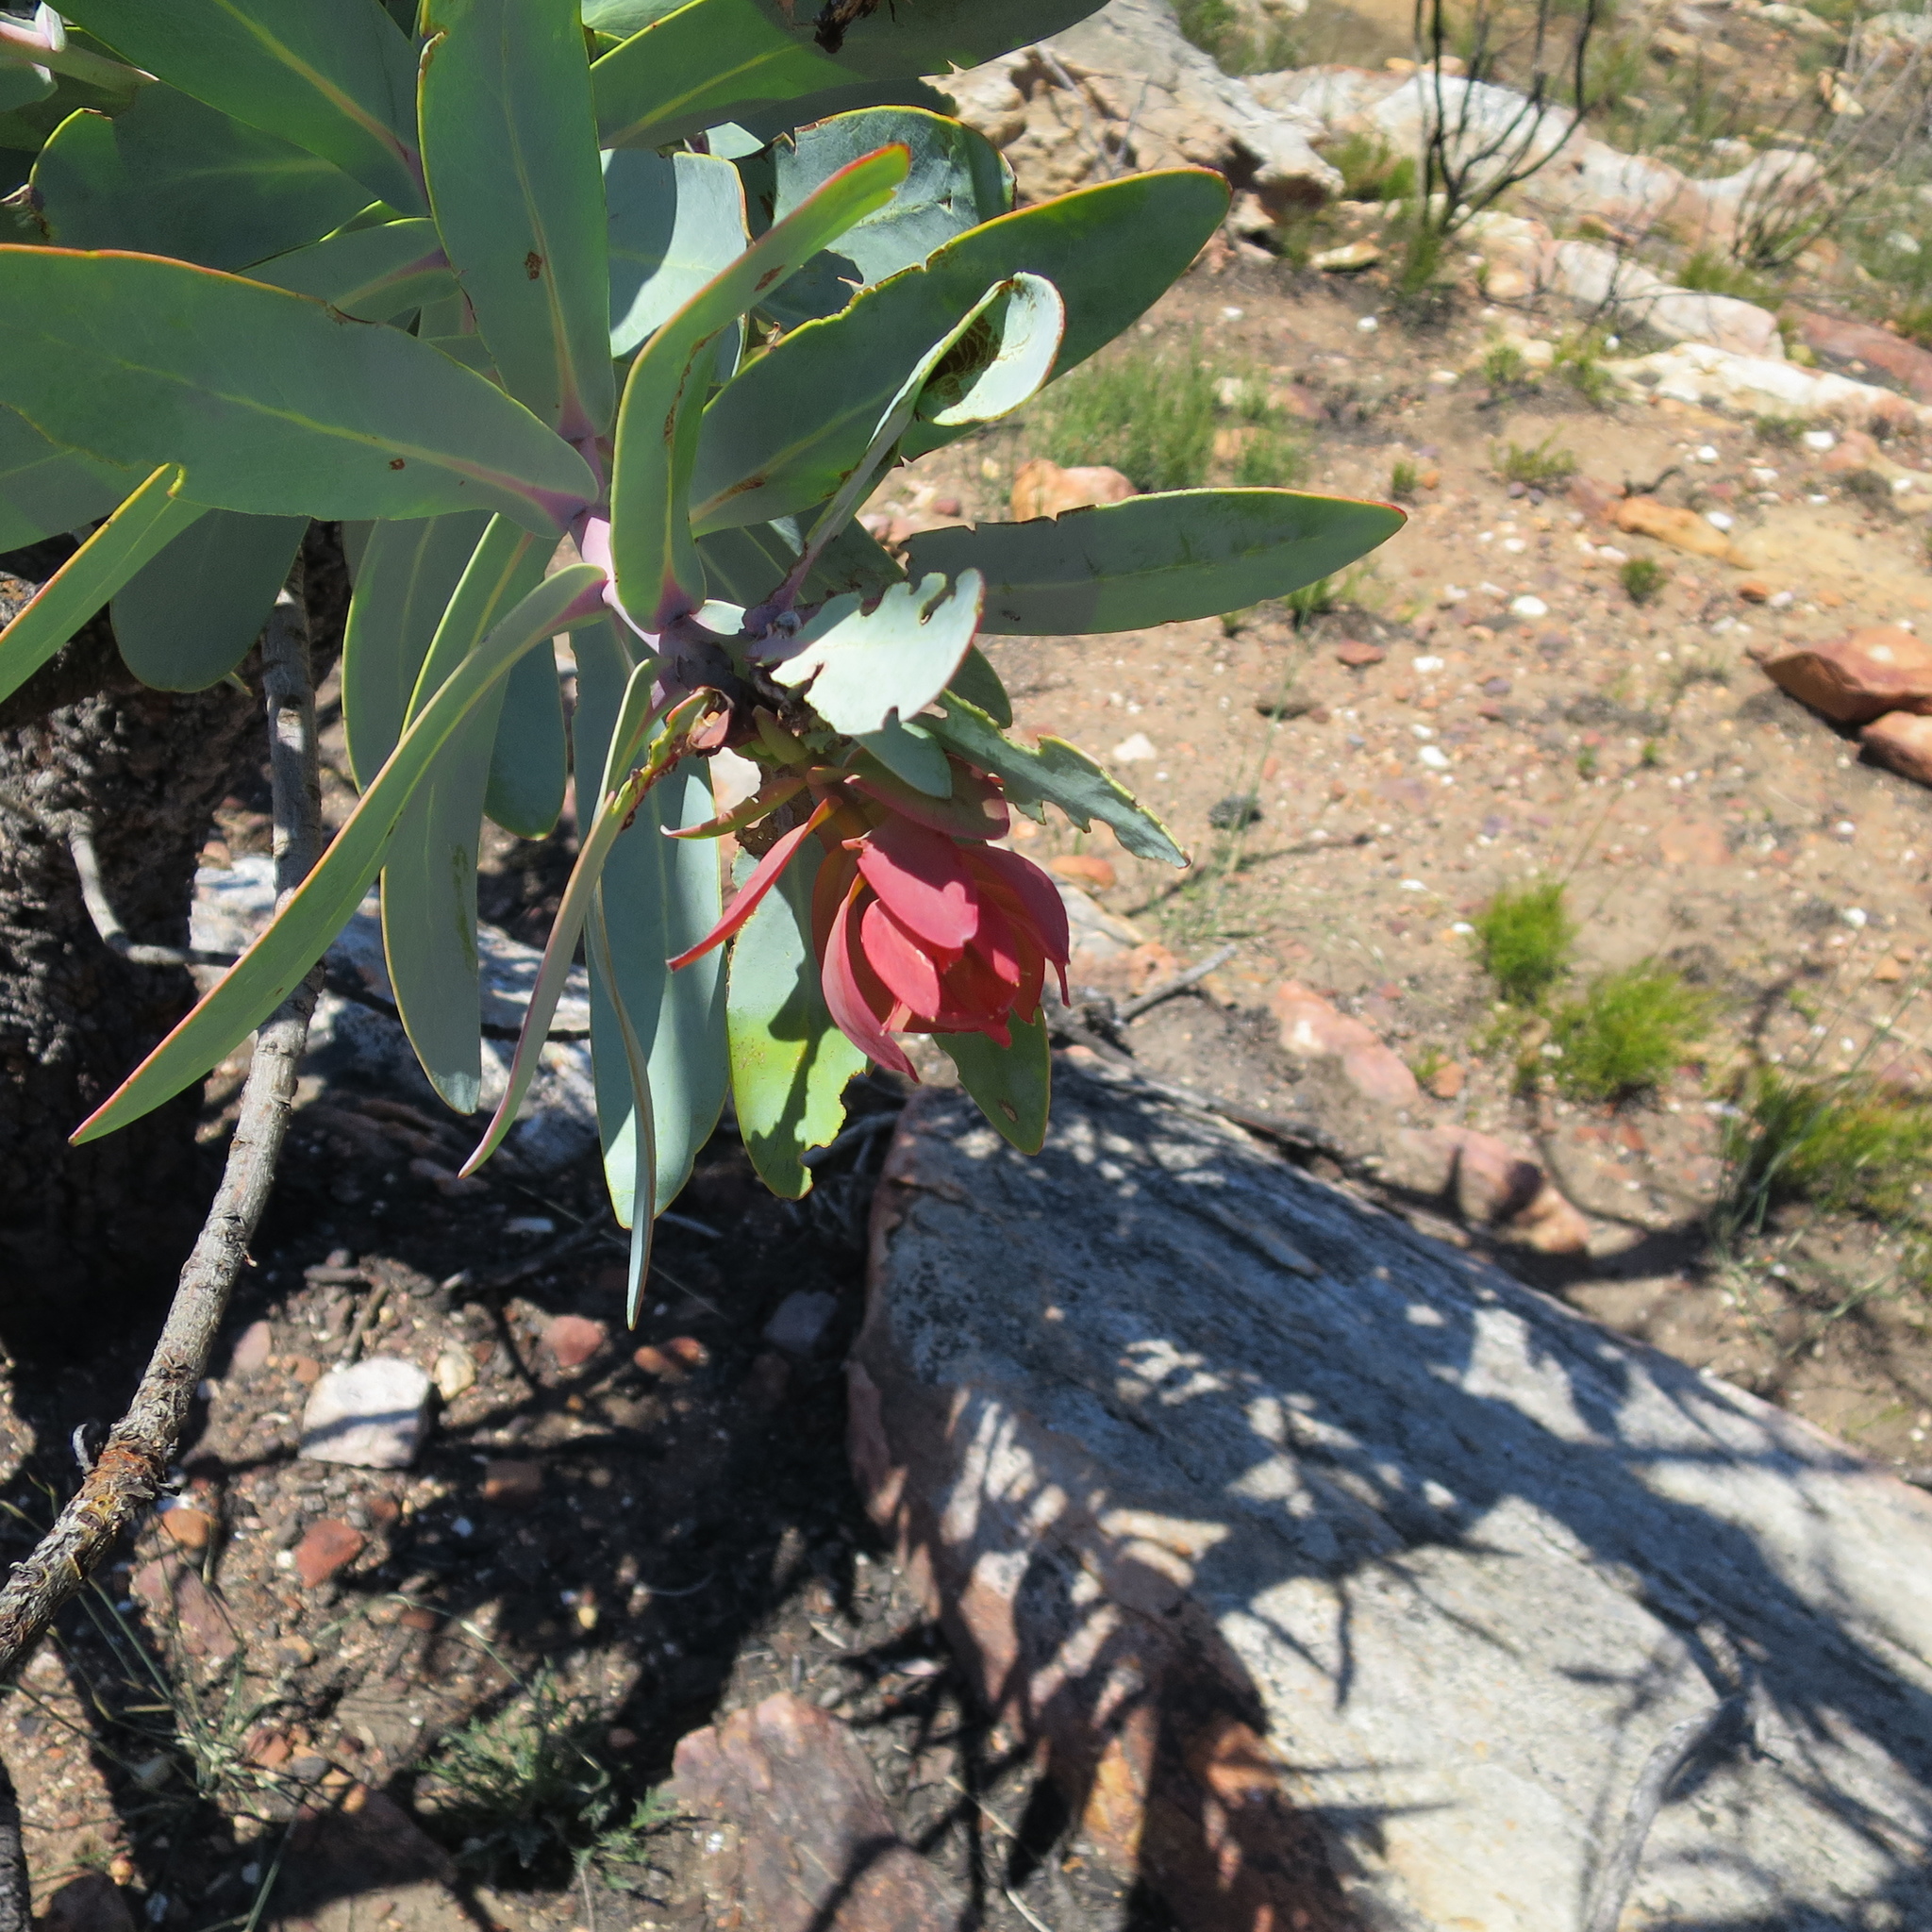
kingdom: Plantae
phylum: Tracheophyta
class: Magnoliopsida
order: Proteales
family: Proteaceae
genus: Protea
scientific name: Protea nitida
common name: Tree protea
